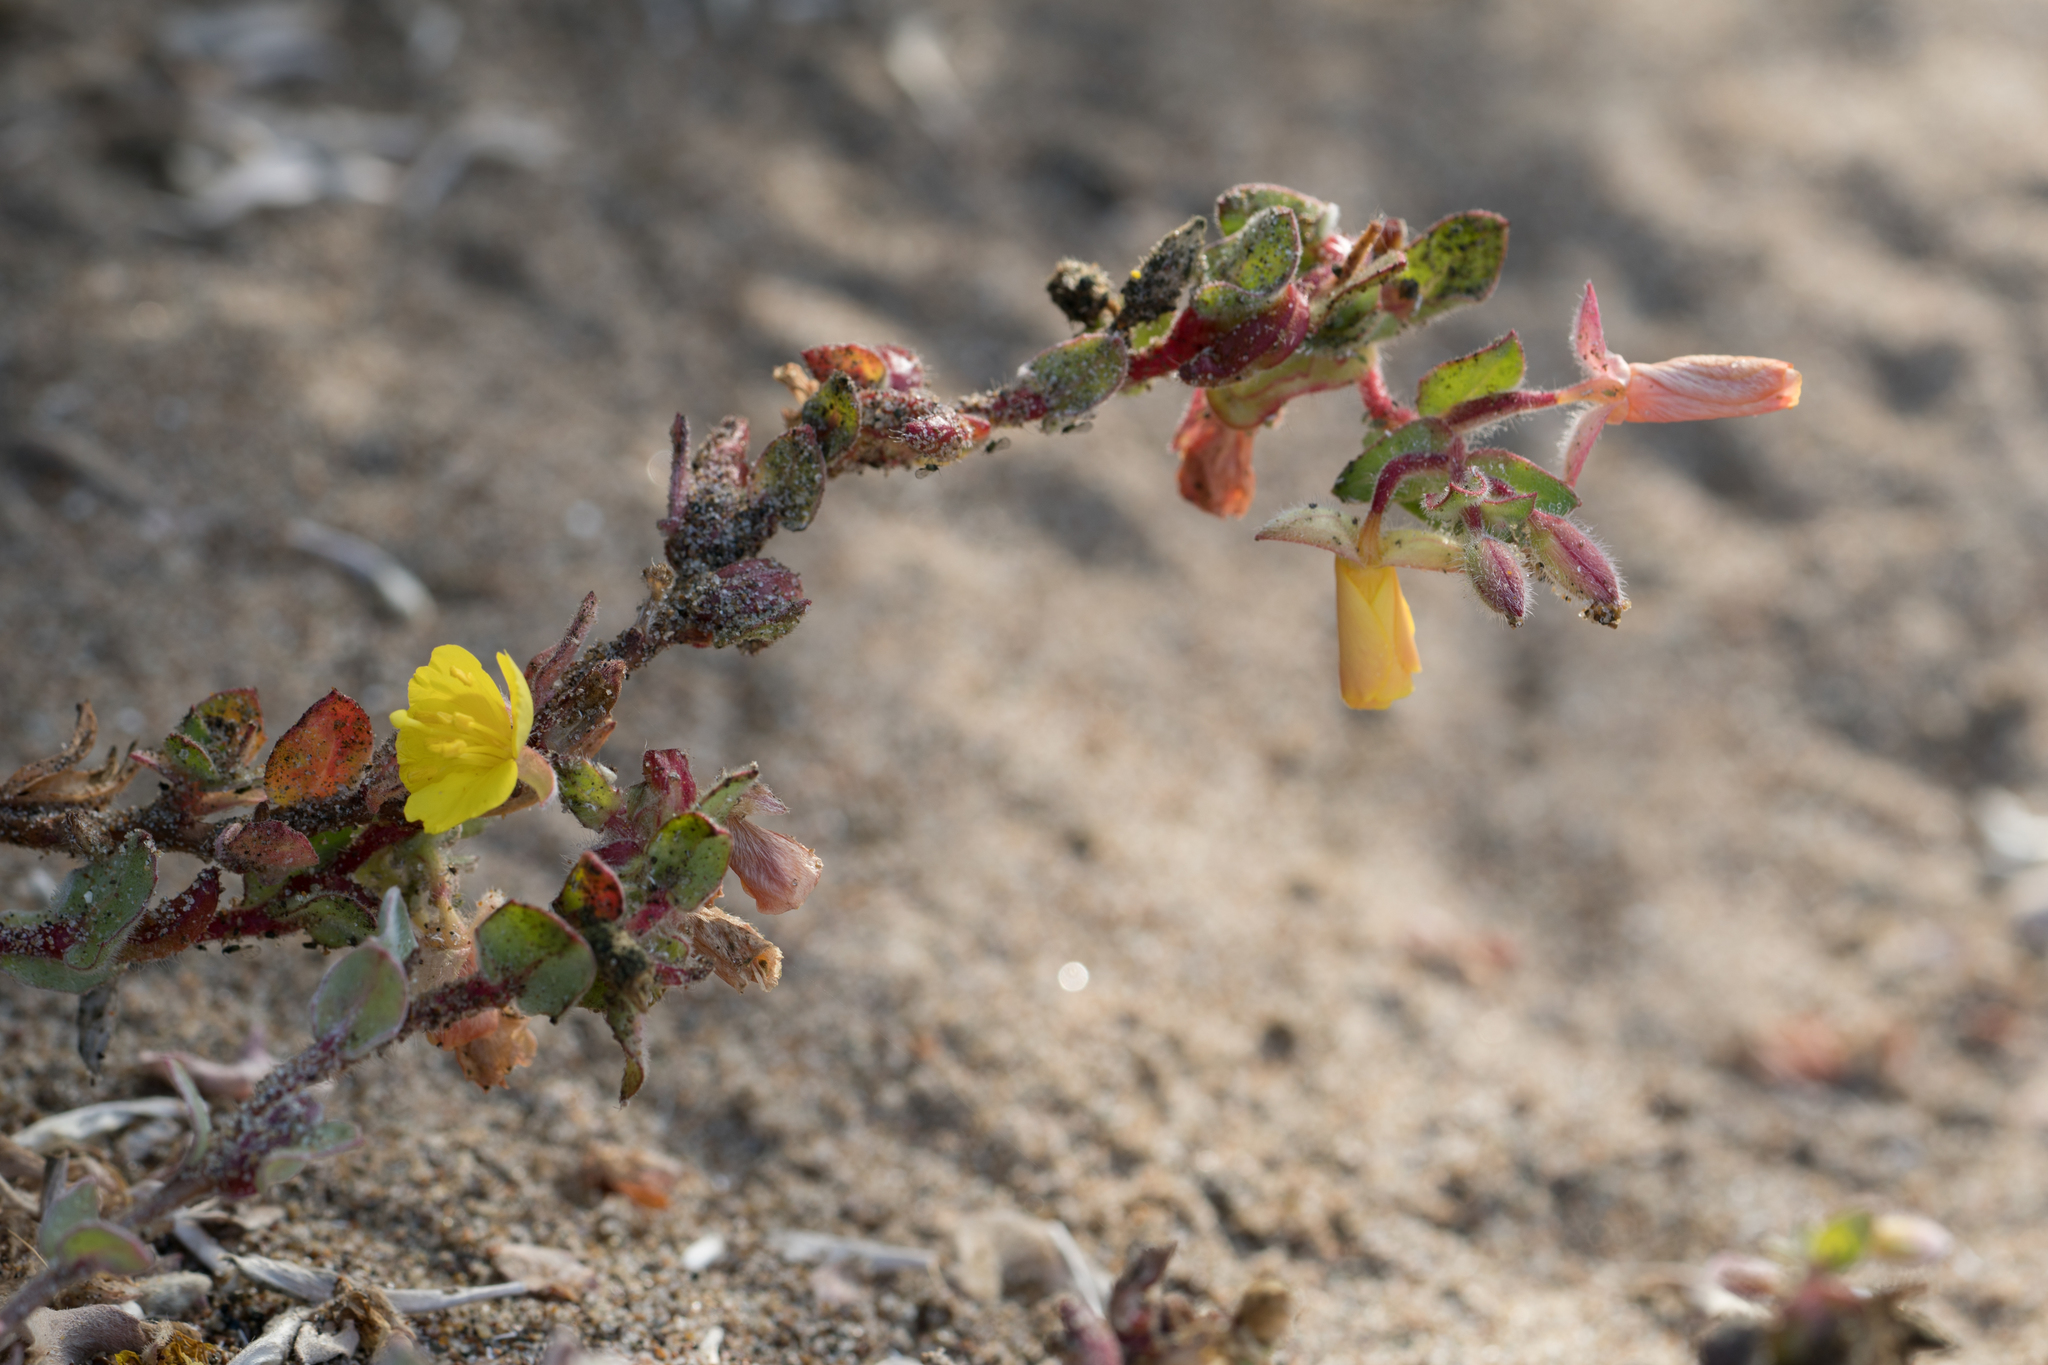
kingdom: Plantae
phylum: Tracheophyta
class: Magnoliopsida
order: Myrtales
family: Onagraceae
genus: Camissoniopsis
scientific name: Camissoniopsis cheiranthifolia
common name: Beach suncup
